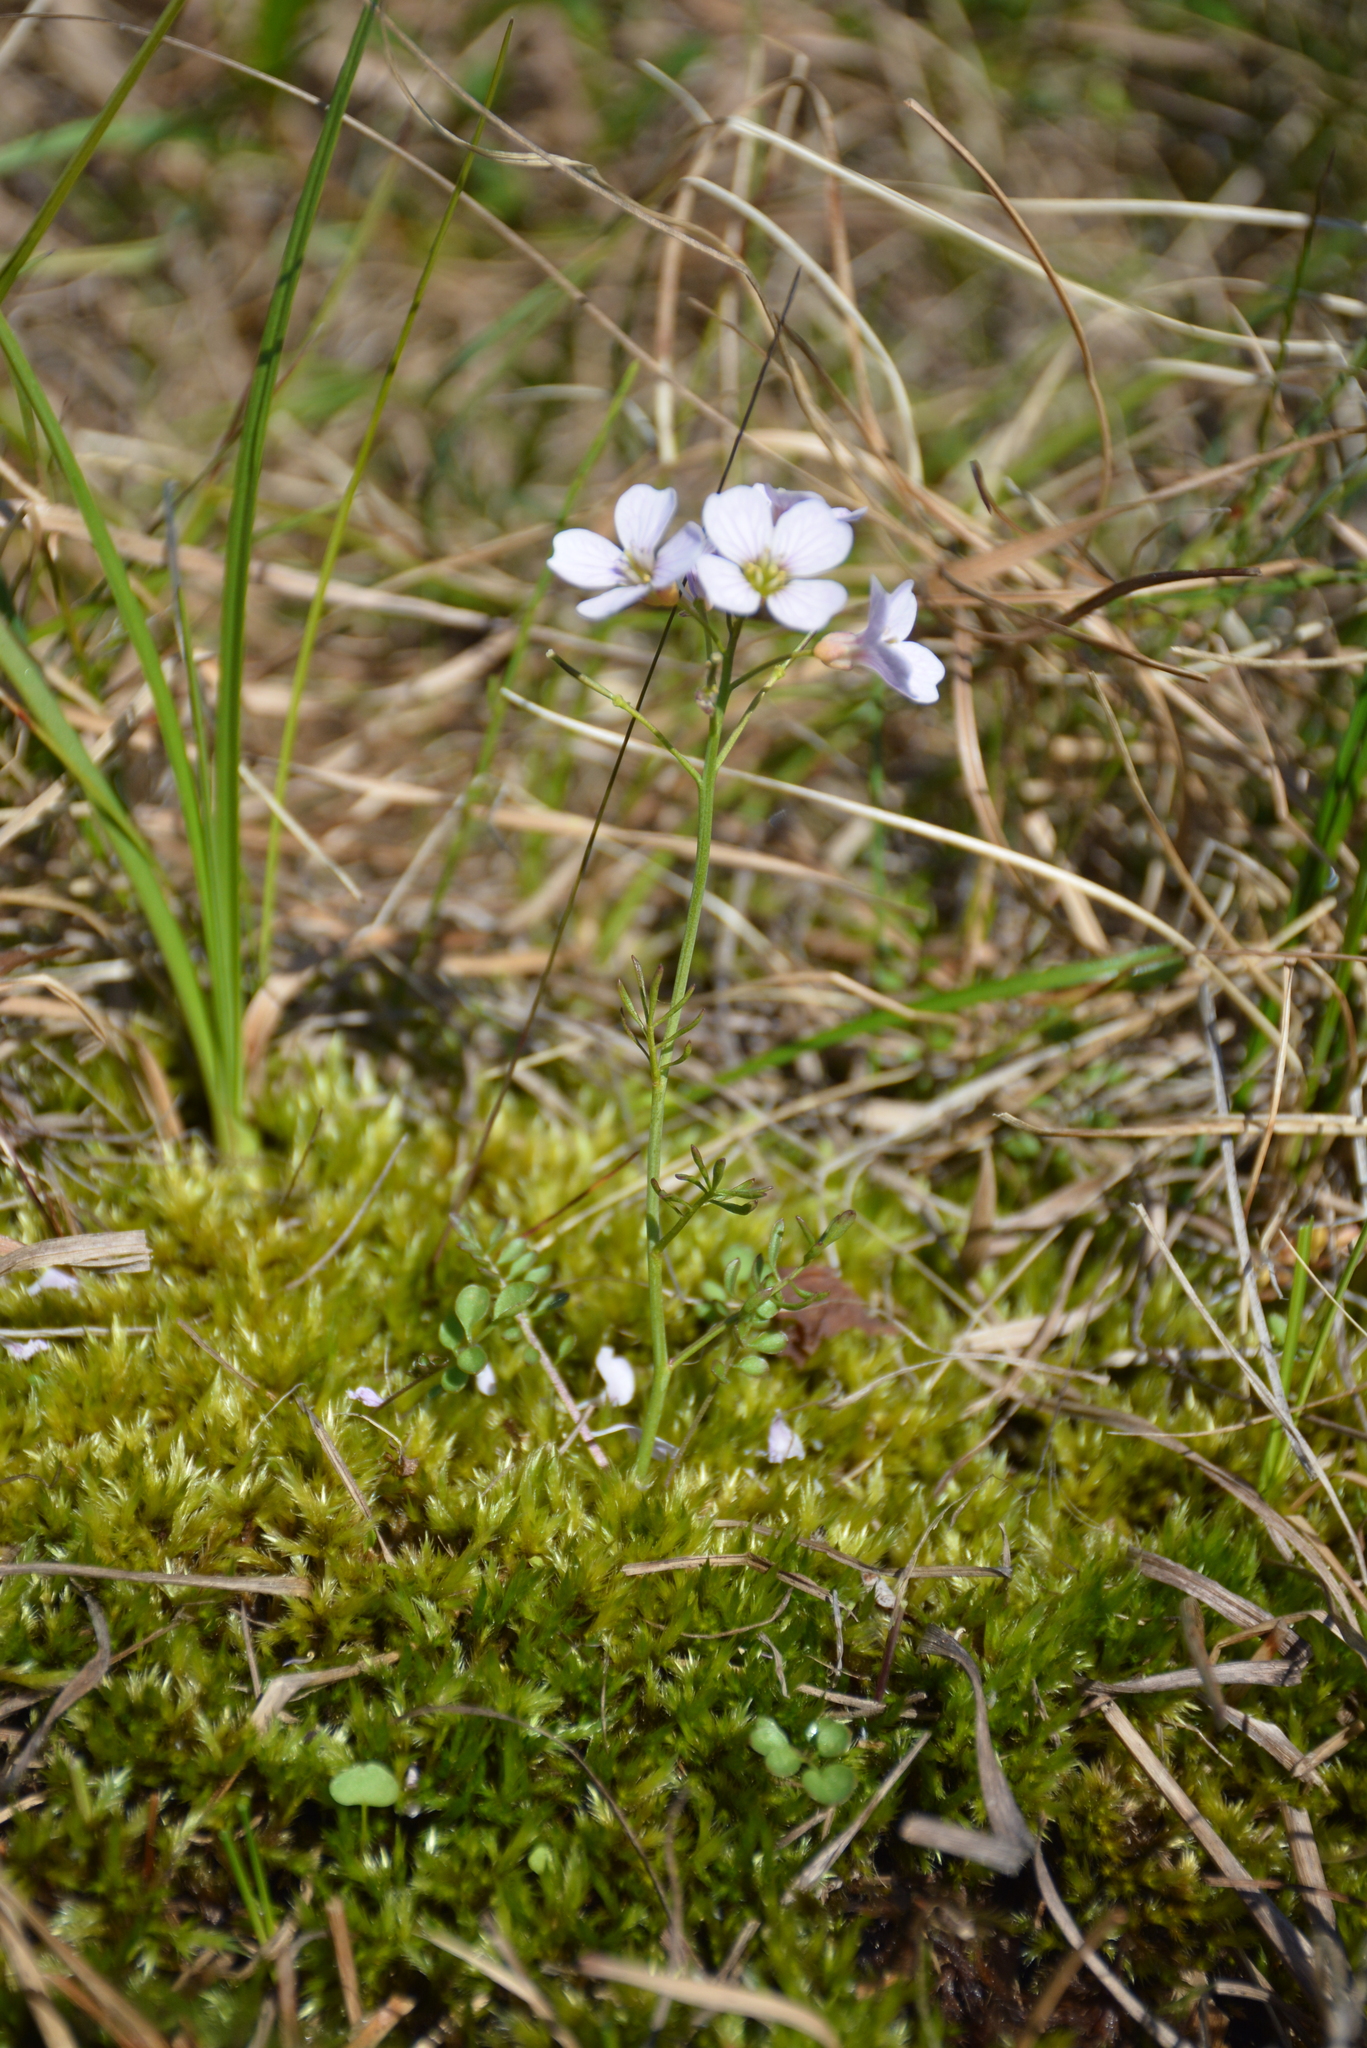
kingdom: Plantae
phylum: Tracheophyta
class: Magnoliopsida
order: Brassicales
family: Brassicaceae
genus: Cardamine
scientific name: Cardamine pratensis
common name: Cuckoo flower
